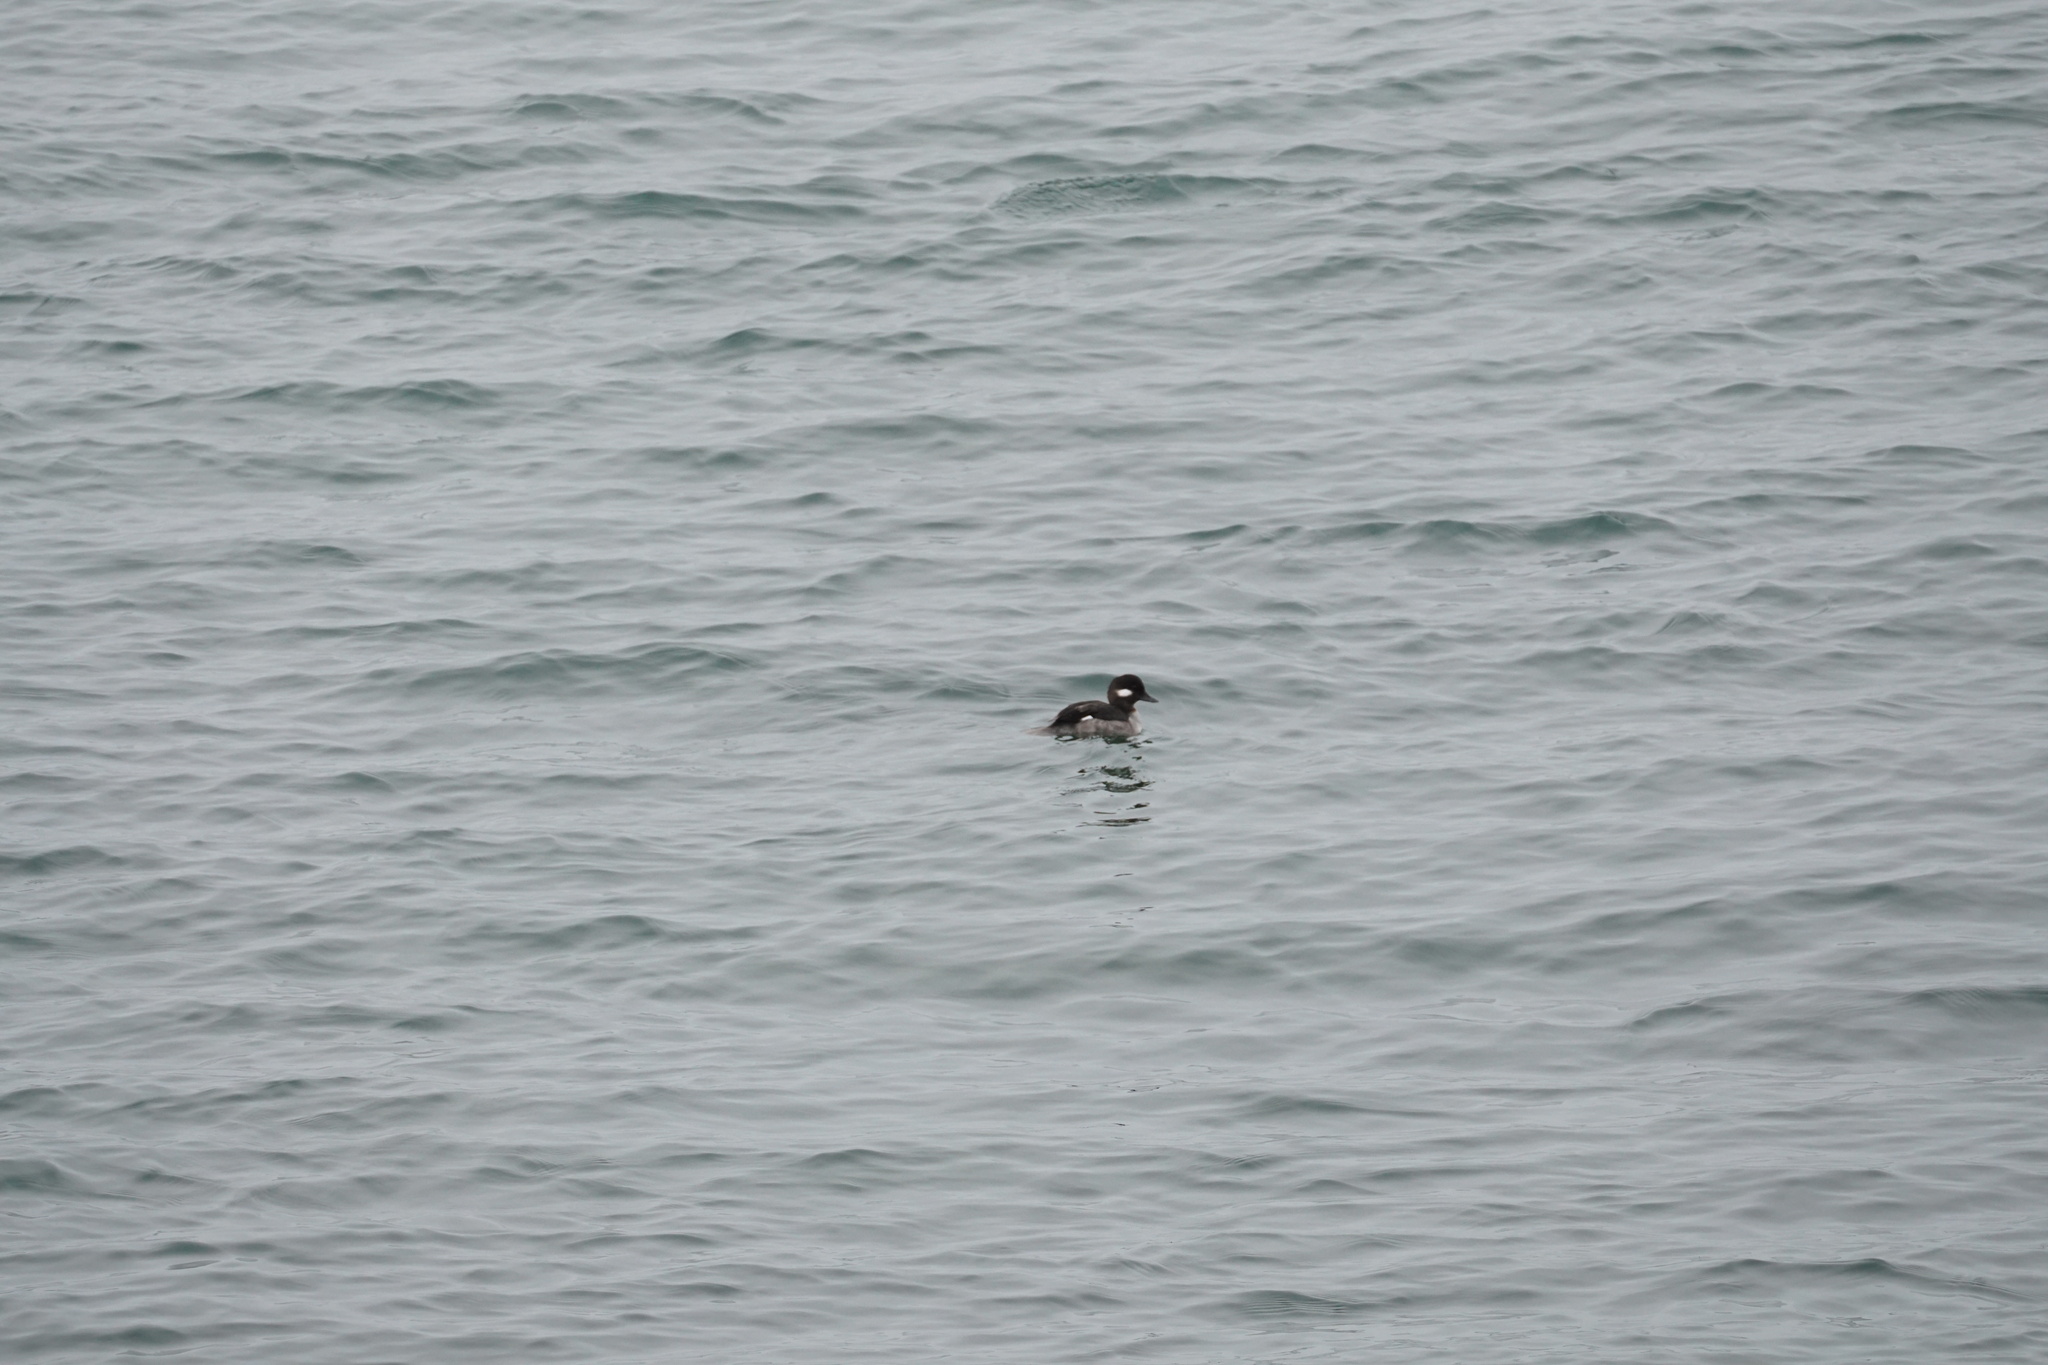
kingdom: Animalia
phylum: Chordata
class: Aves
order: Anseriformes
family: Anatidae
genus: Bucephala
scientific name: Bucephala albeola
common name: Bufflehead
